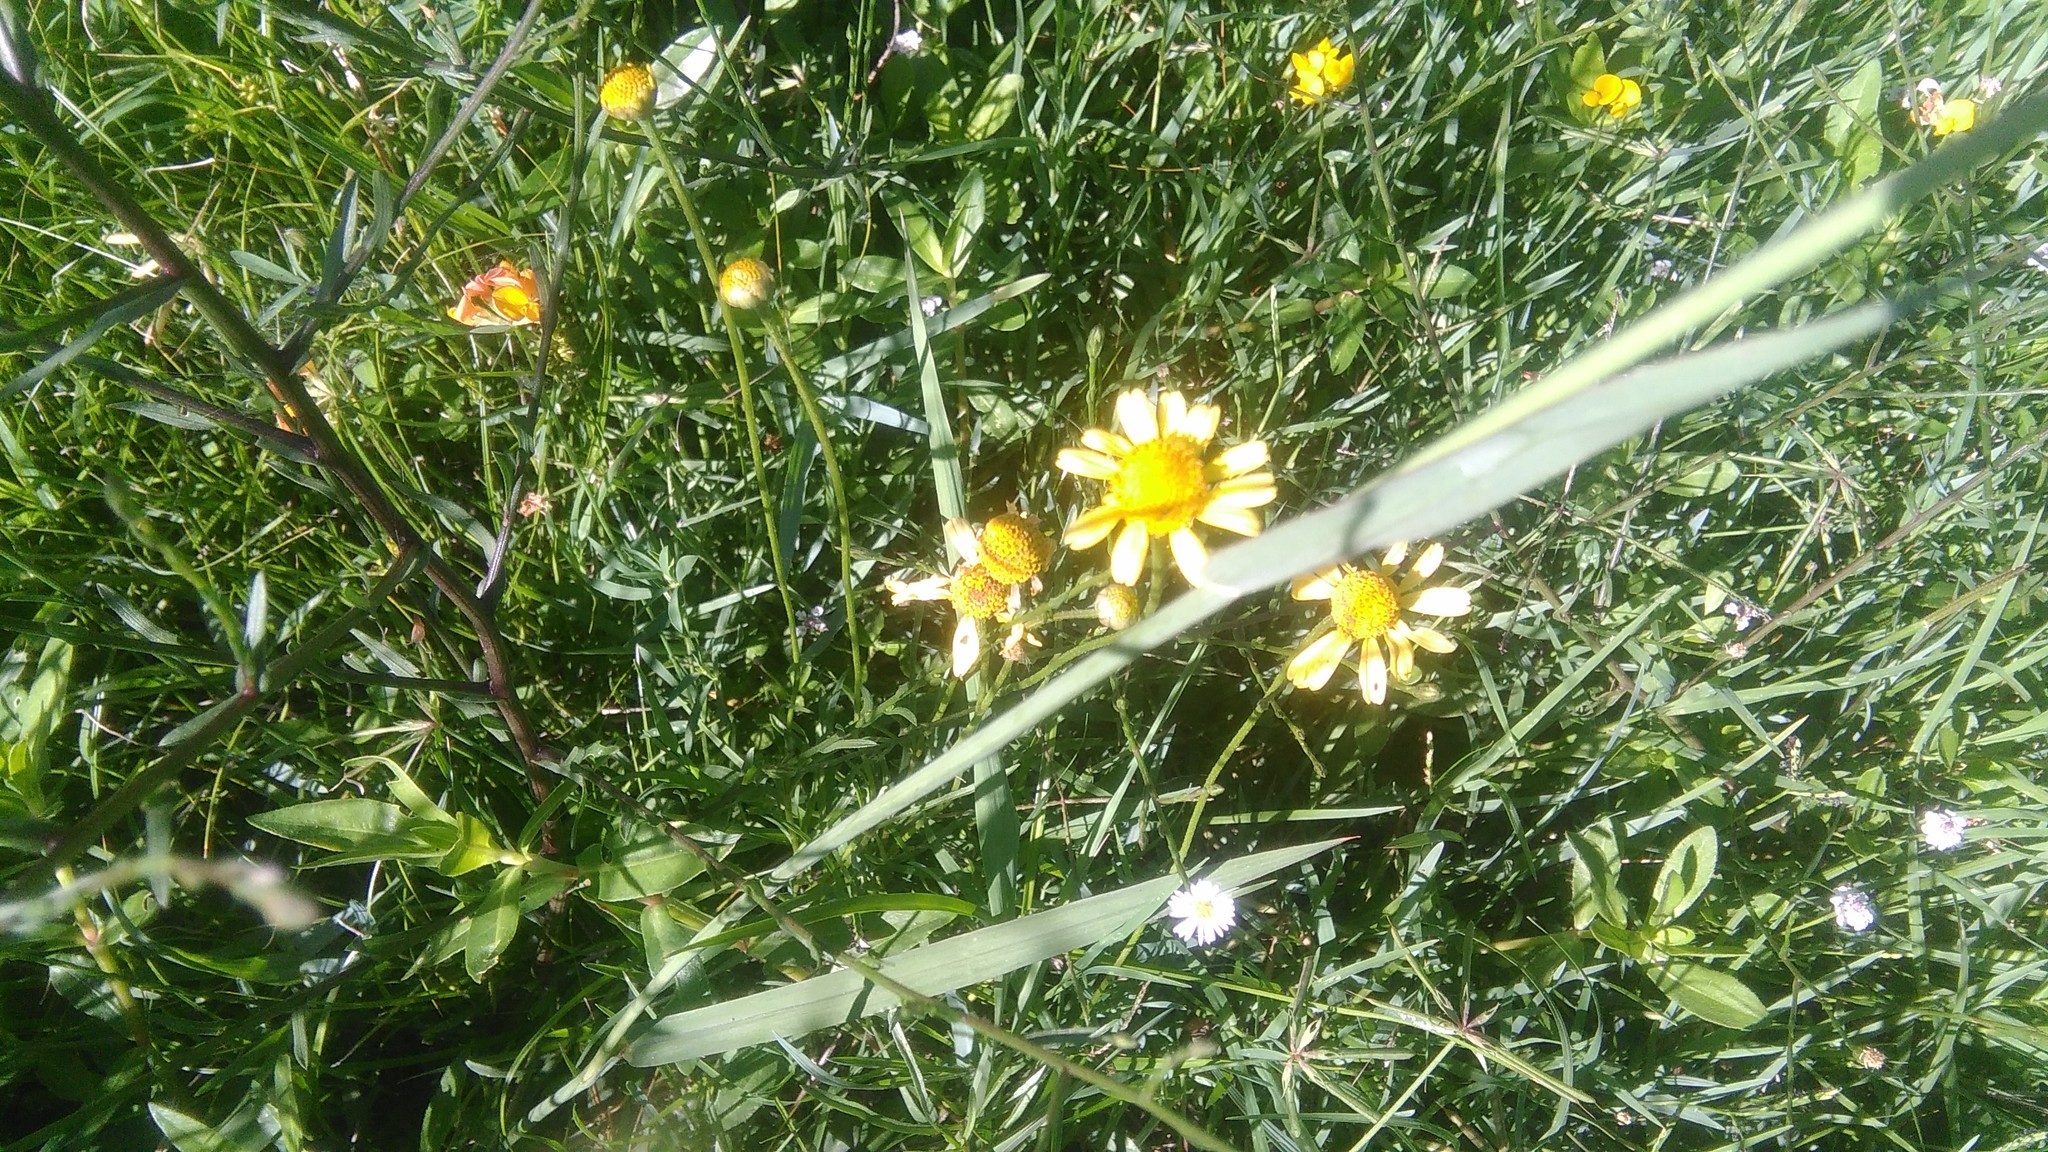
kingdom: Plantae
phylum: Tracheophyta
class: Magnoliopsida
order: Asterales
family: Asteraceae
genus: Acmella
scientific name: Acmella decumbens
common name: Creeping spotflower
